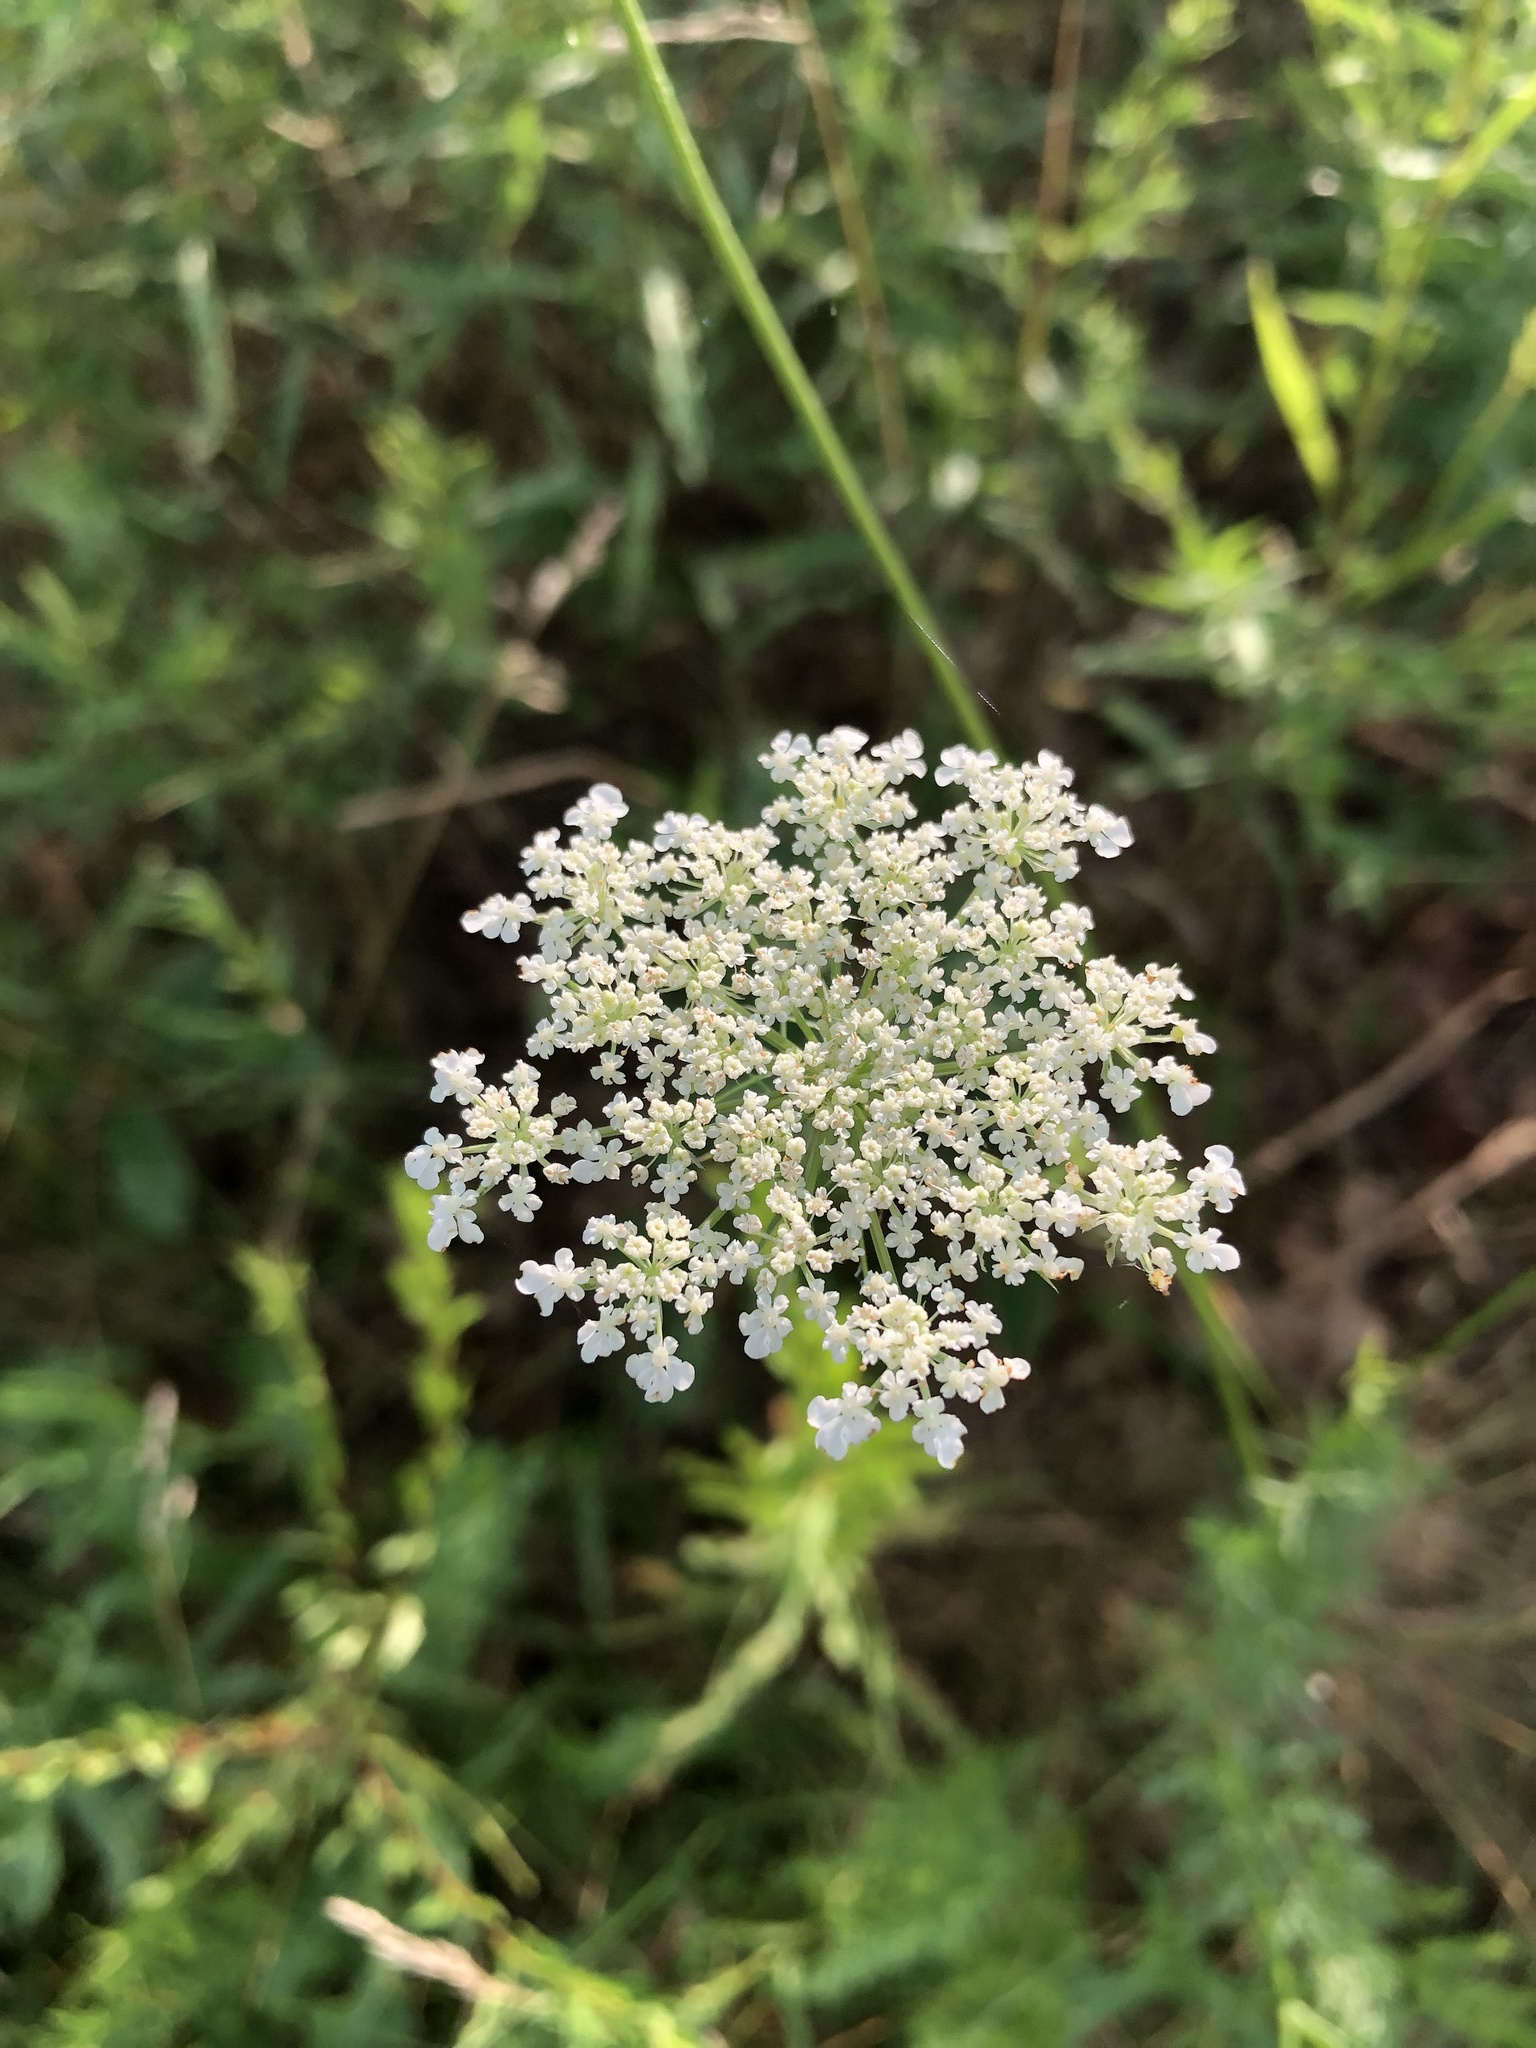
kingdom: Plantae
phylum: Tracheophyta
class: Magnoliopsida
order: Apiales
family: Apiaceae
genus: Daucus
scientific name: Daucus carota
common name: Wild carrot
